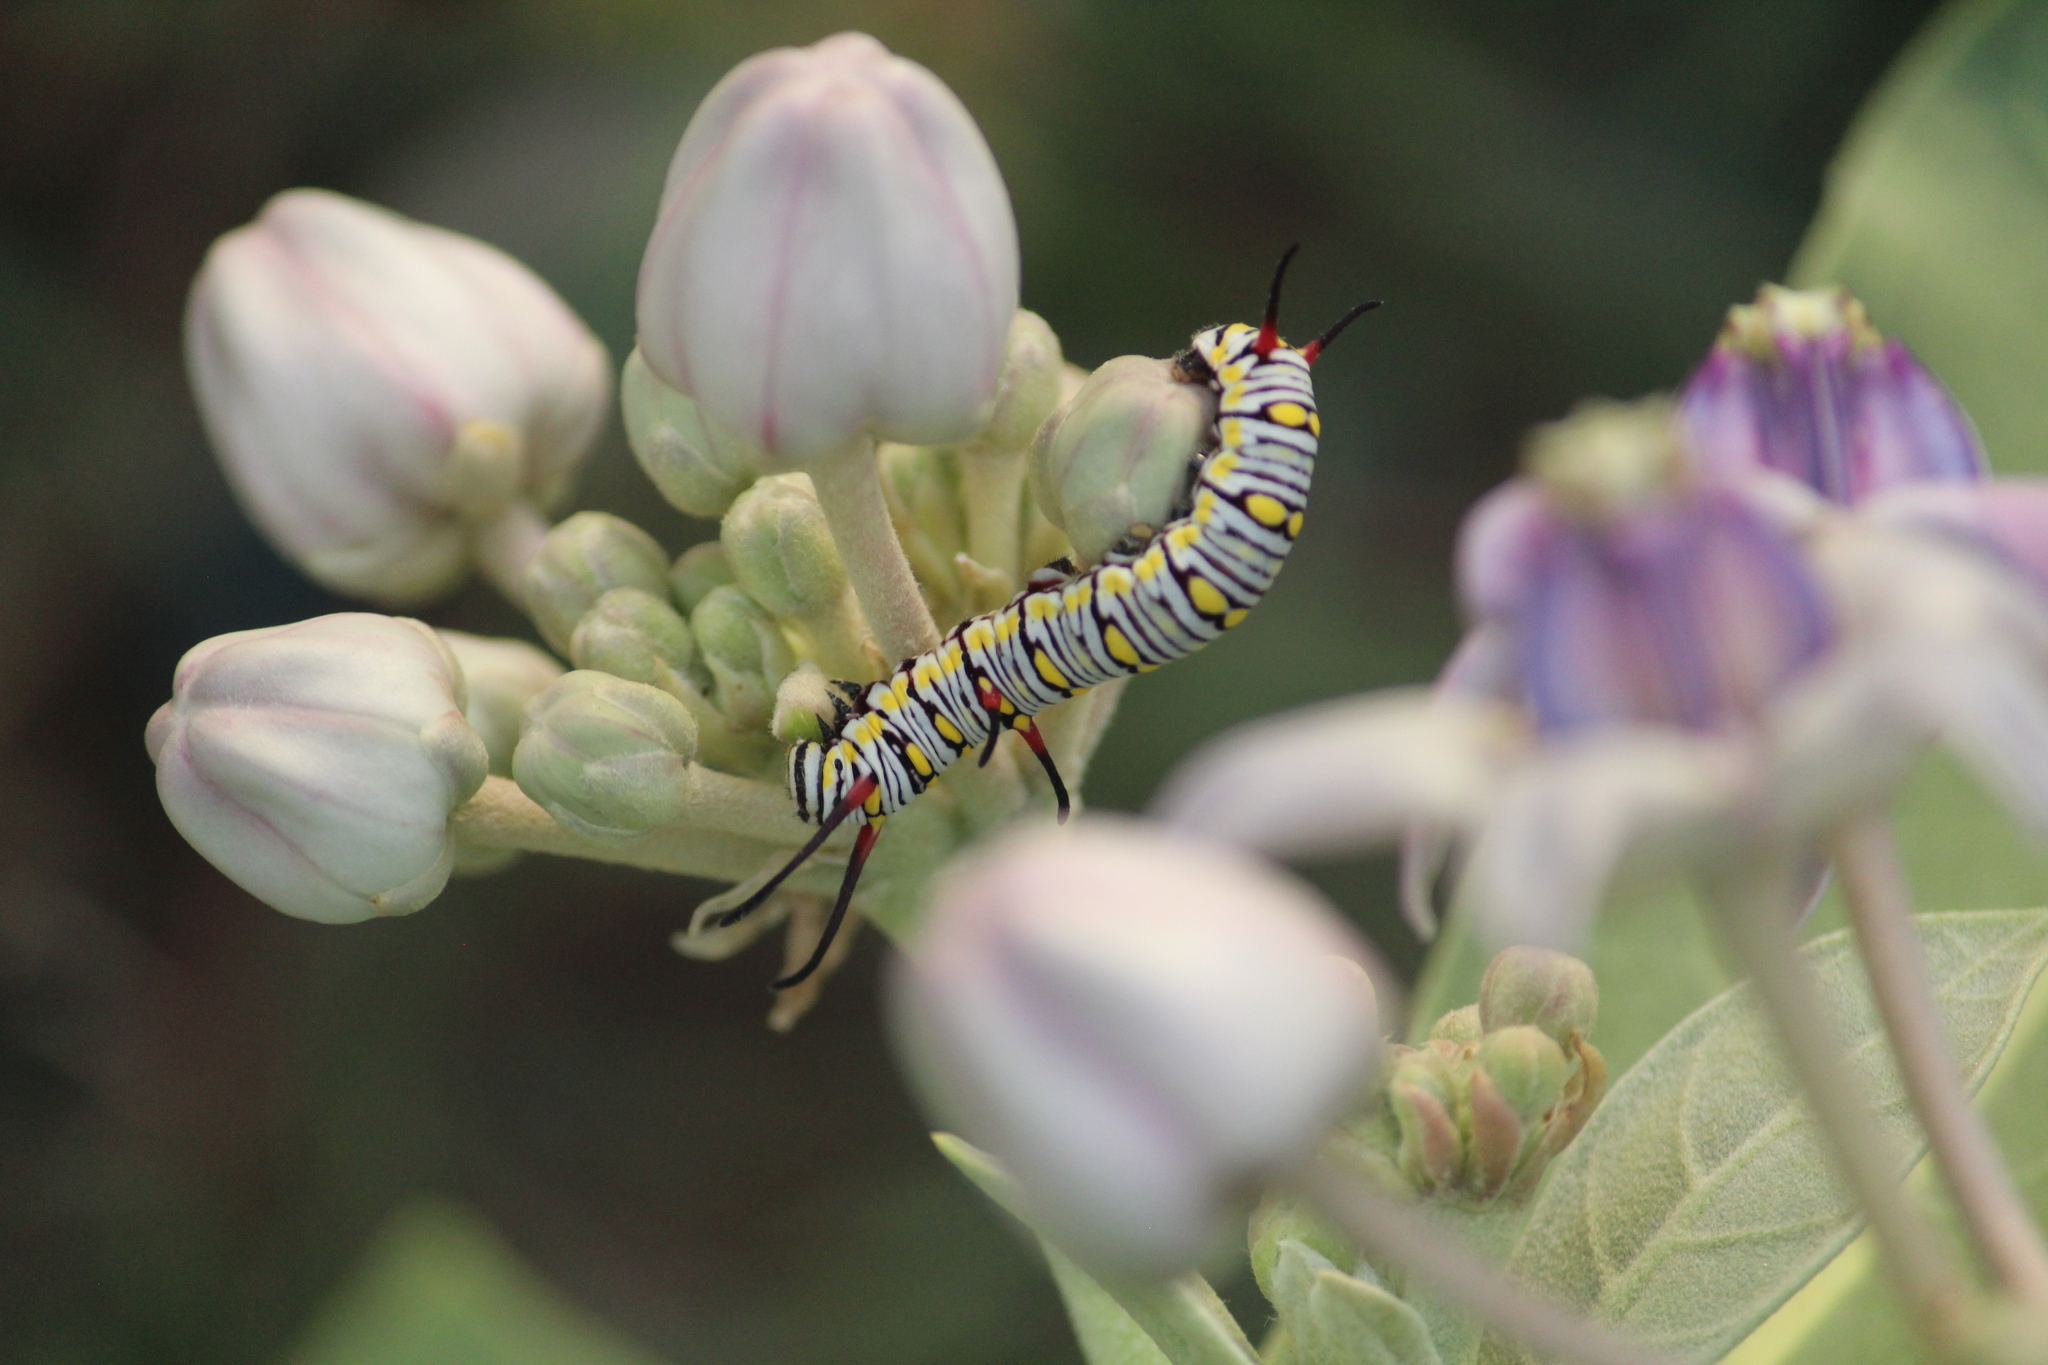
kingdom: Animalia
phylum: Arthropoda
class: Insecta
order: Lepidoptera
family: Nymphalidae
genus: Danaus
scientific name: Danaus chrysippus
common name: Plain tiger
